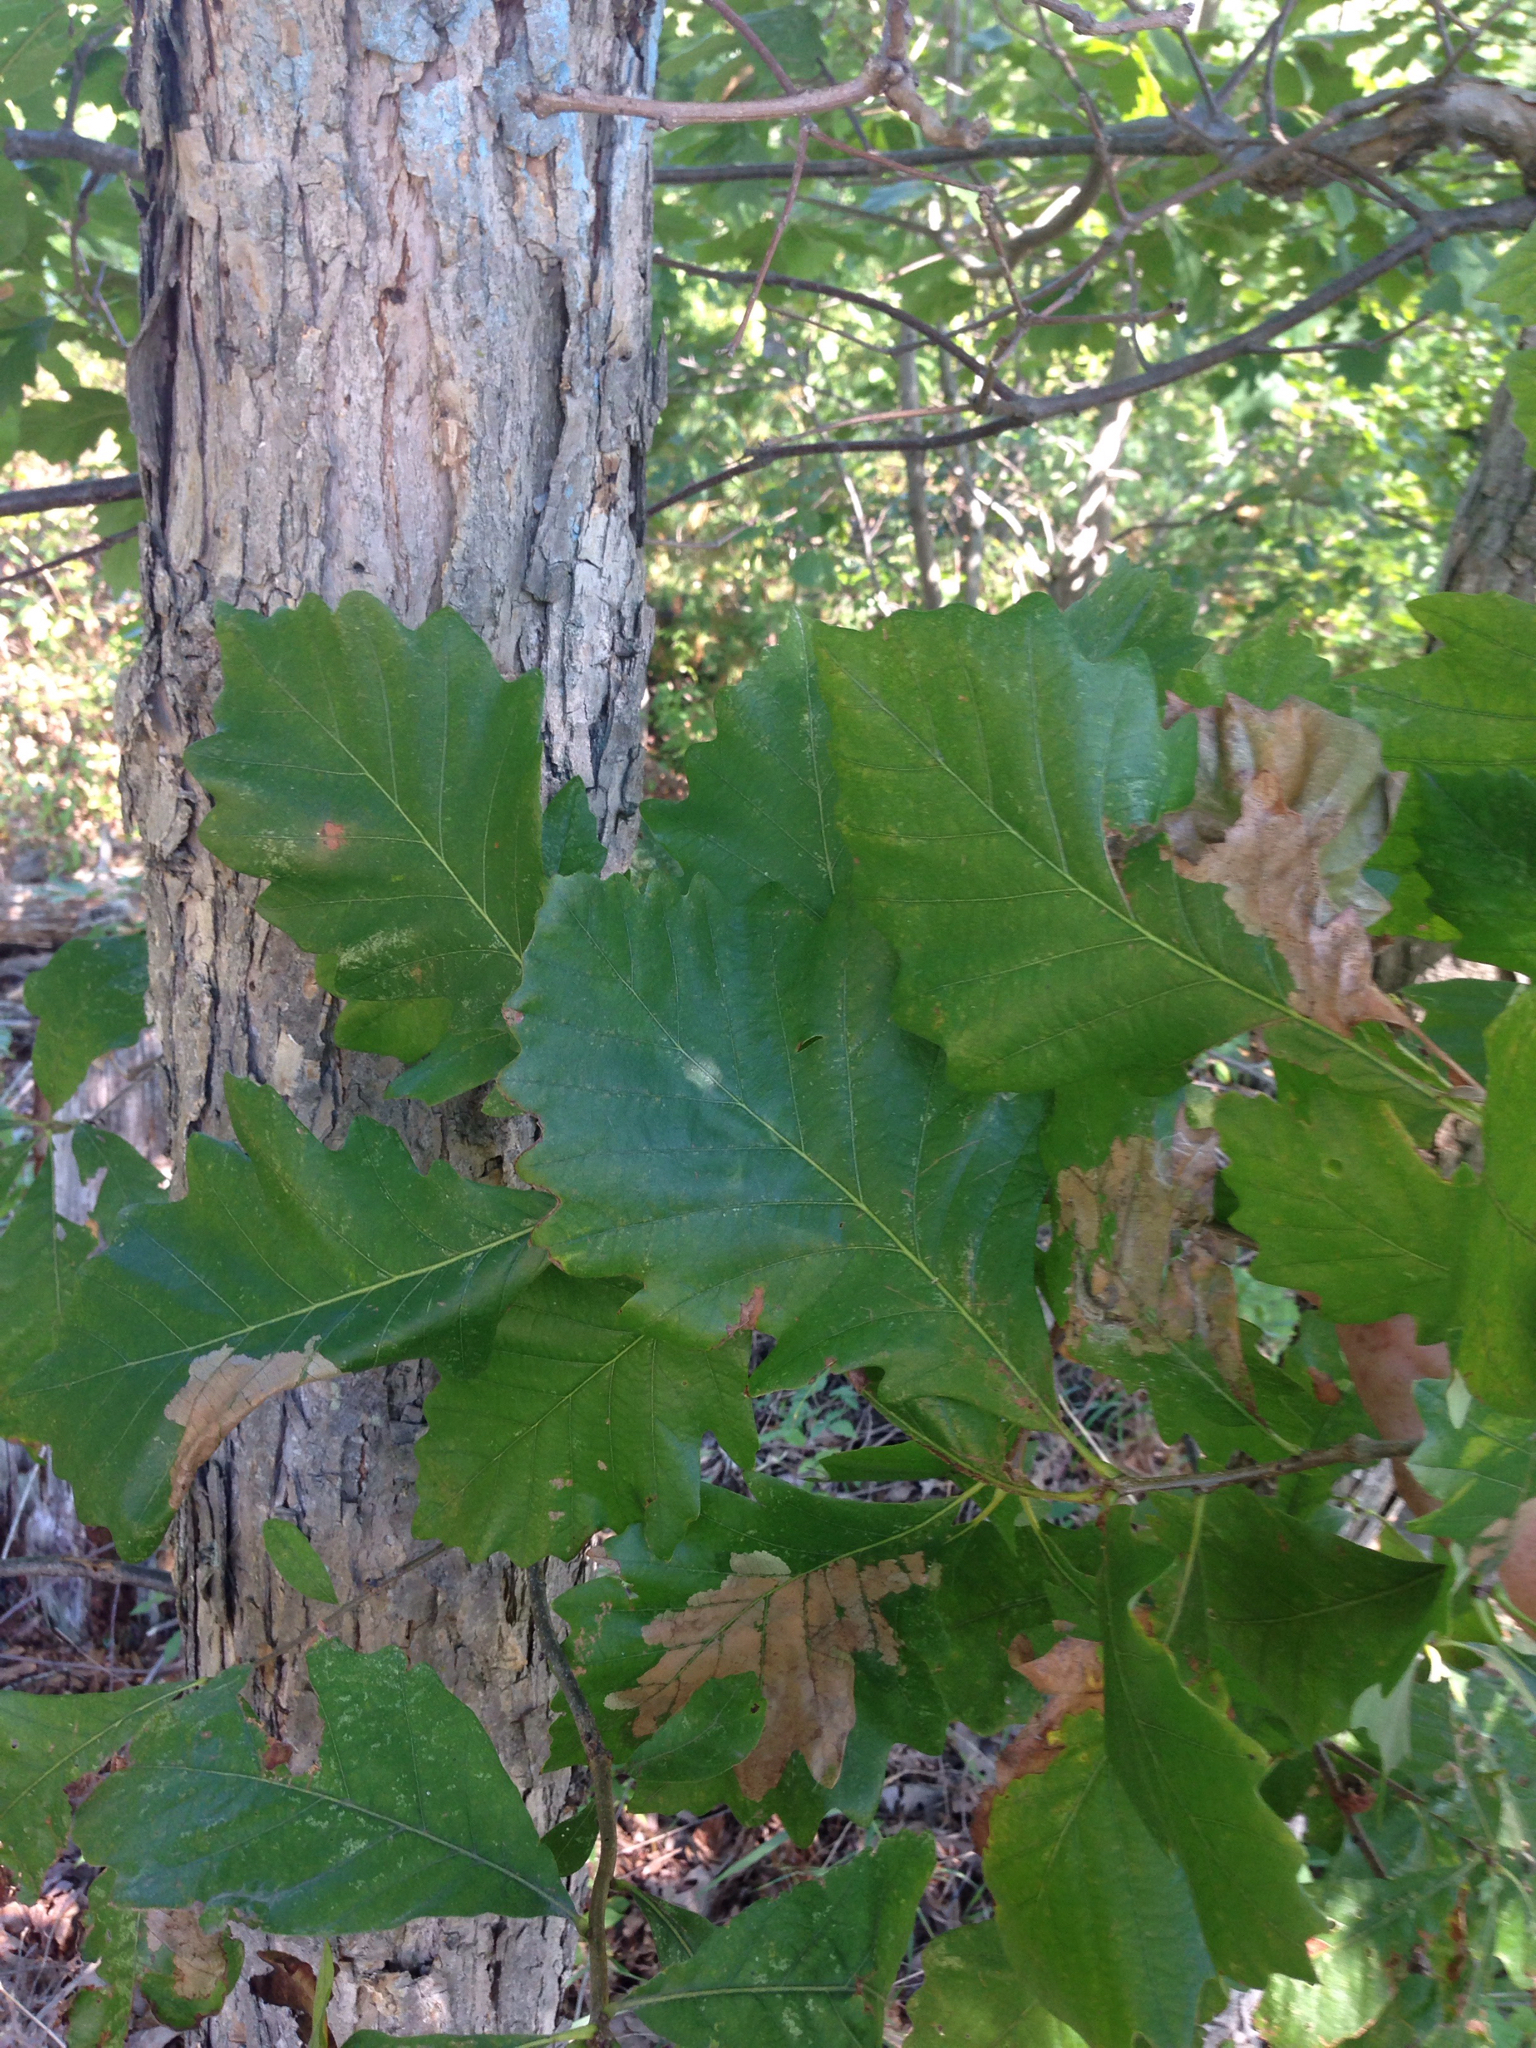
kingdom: Plantae
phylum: Tracheophyta
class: Magnoliopsida
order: Fagales
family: Fagaceae
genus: Quercus
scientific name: Quercus bicolor
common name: Swamp white oak
